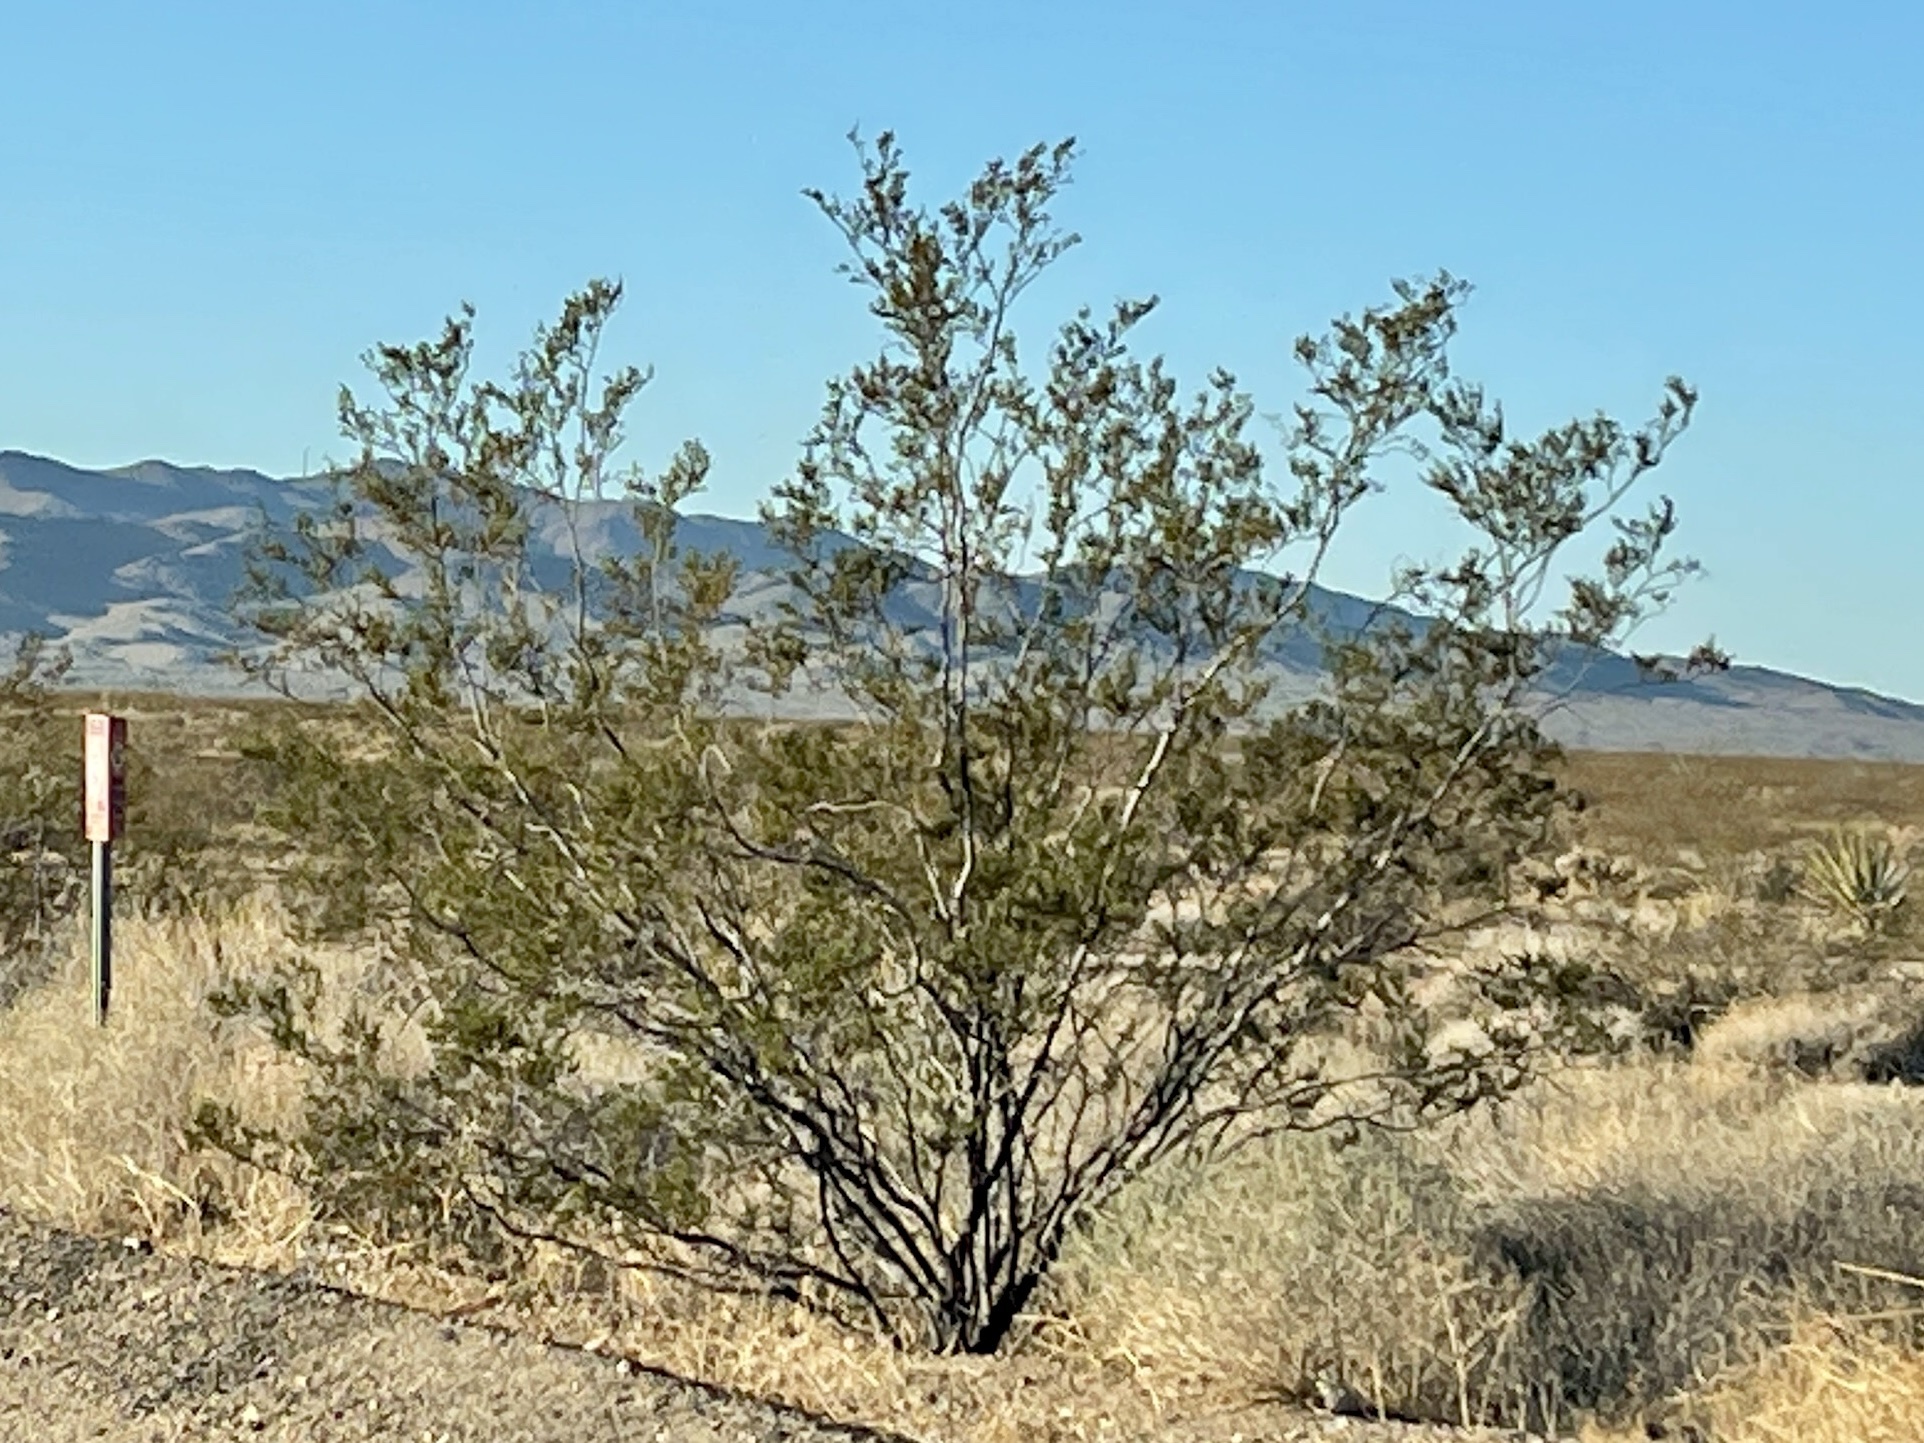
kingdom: Plantae
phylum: Tracheophyta
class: Magnoliopsida
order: Zygophyllales
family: Zygophyllaceae
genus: Larrea
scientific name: Larrea tridentata
